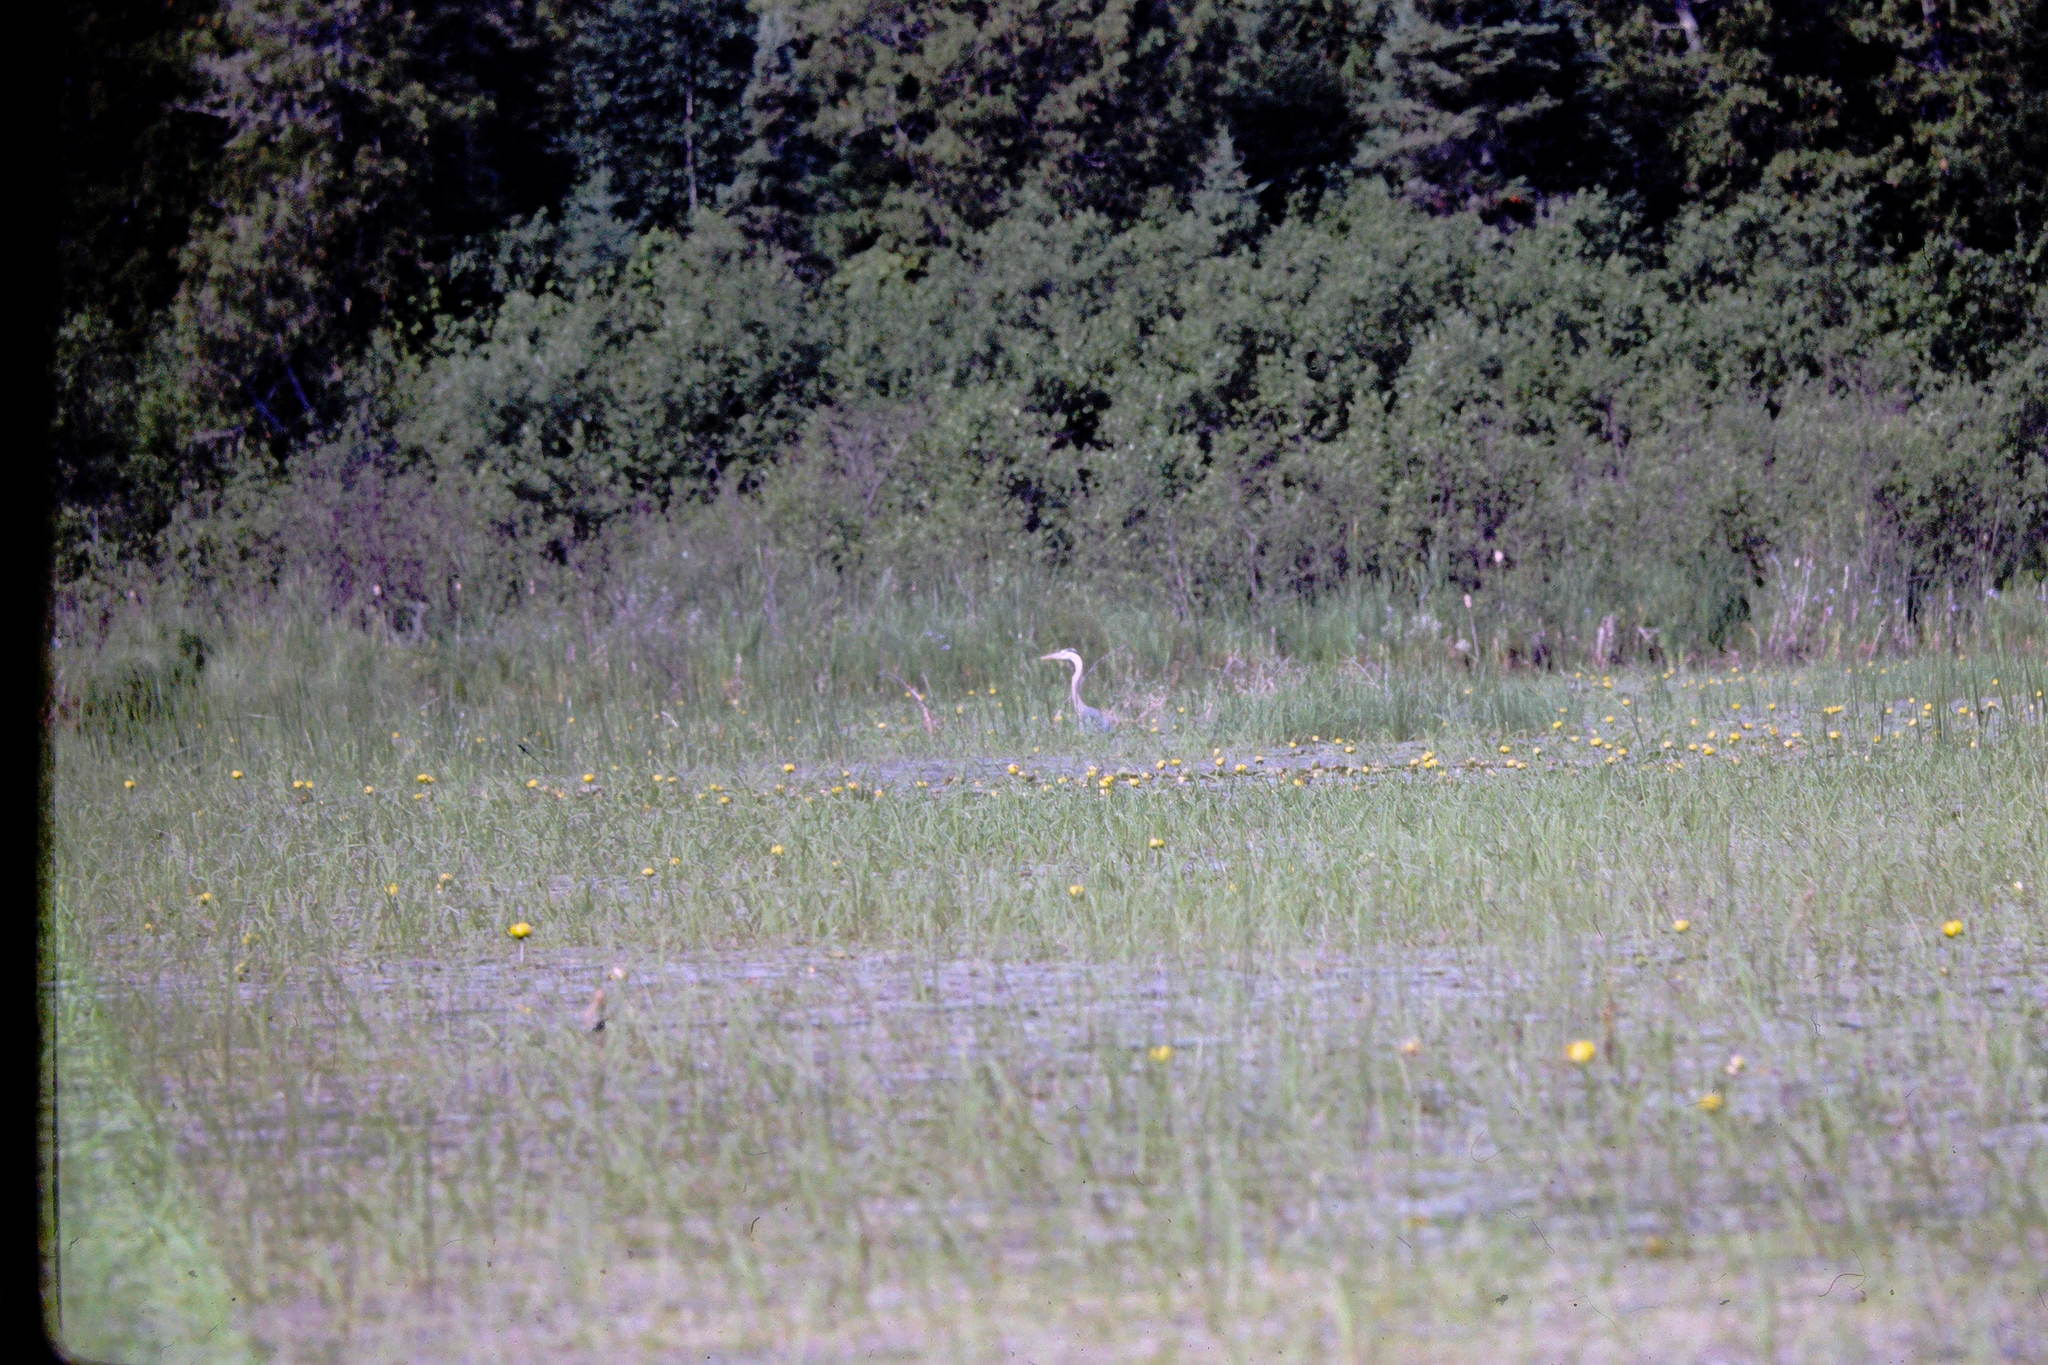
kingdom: Animalia
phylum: Chordata
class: Aves
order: Pelecaniformes
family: Ardeidae
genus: Ardea
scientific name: Ardea herodias
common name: Great blue heron
